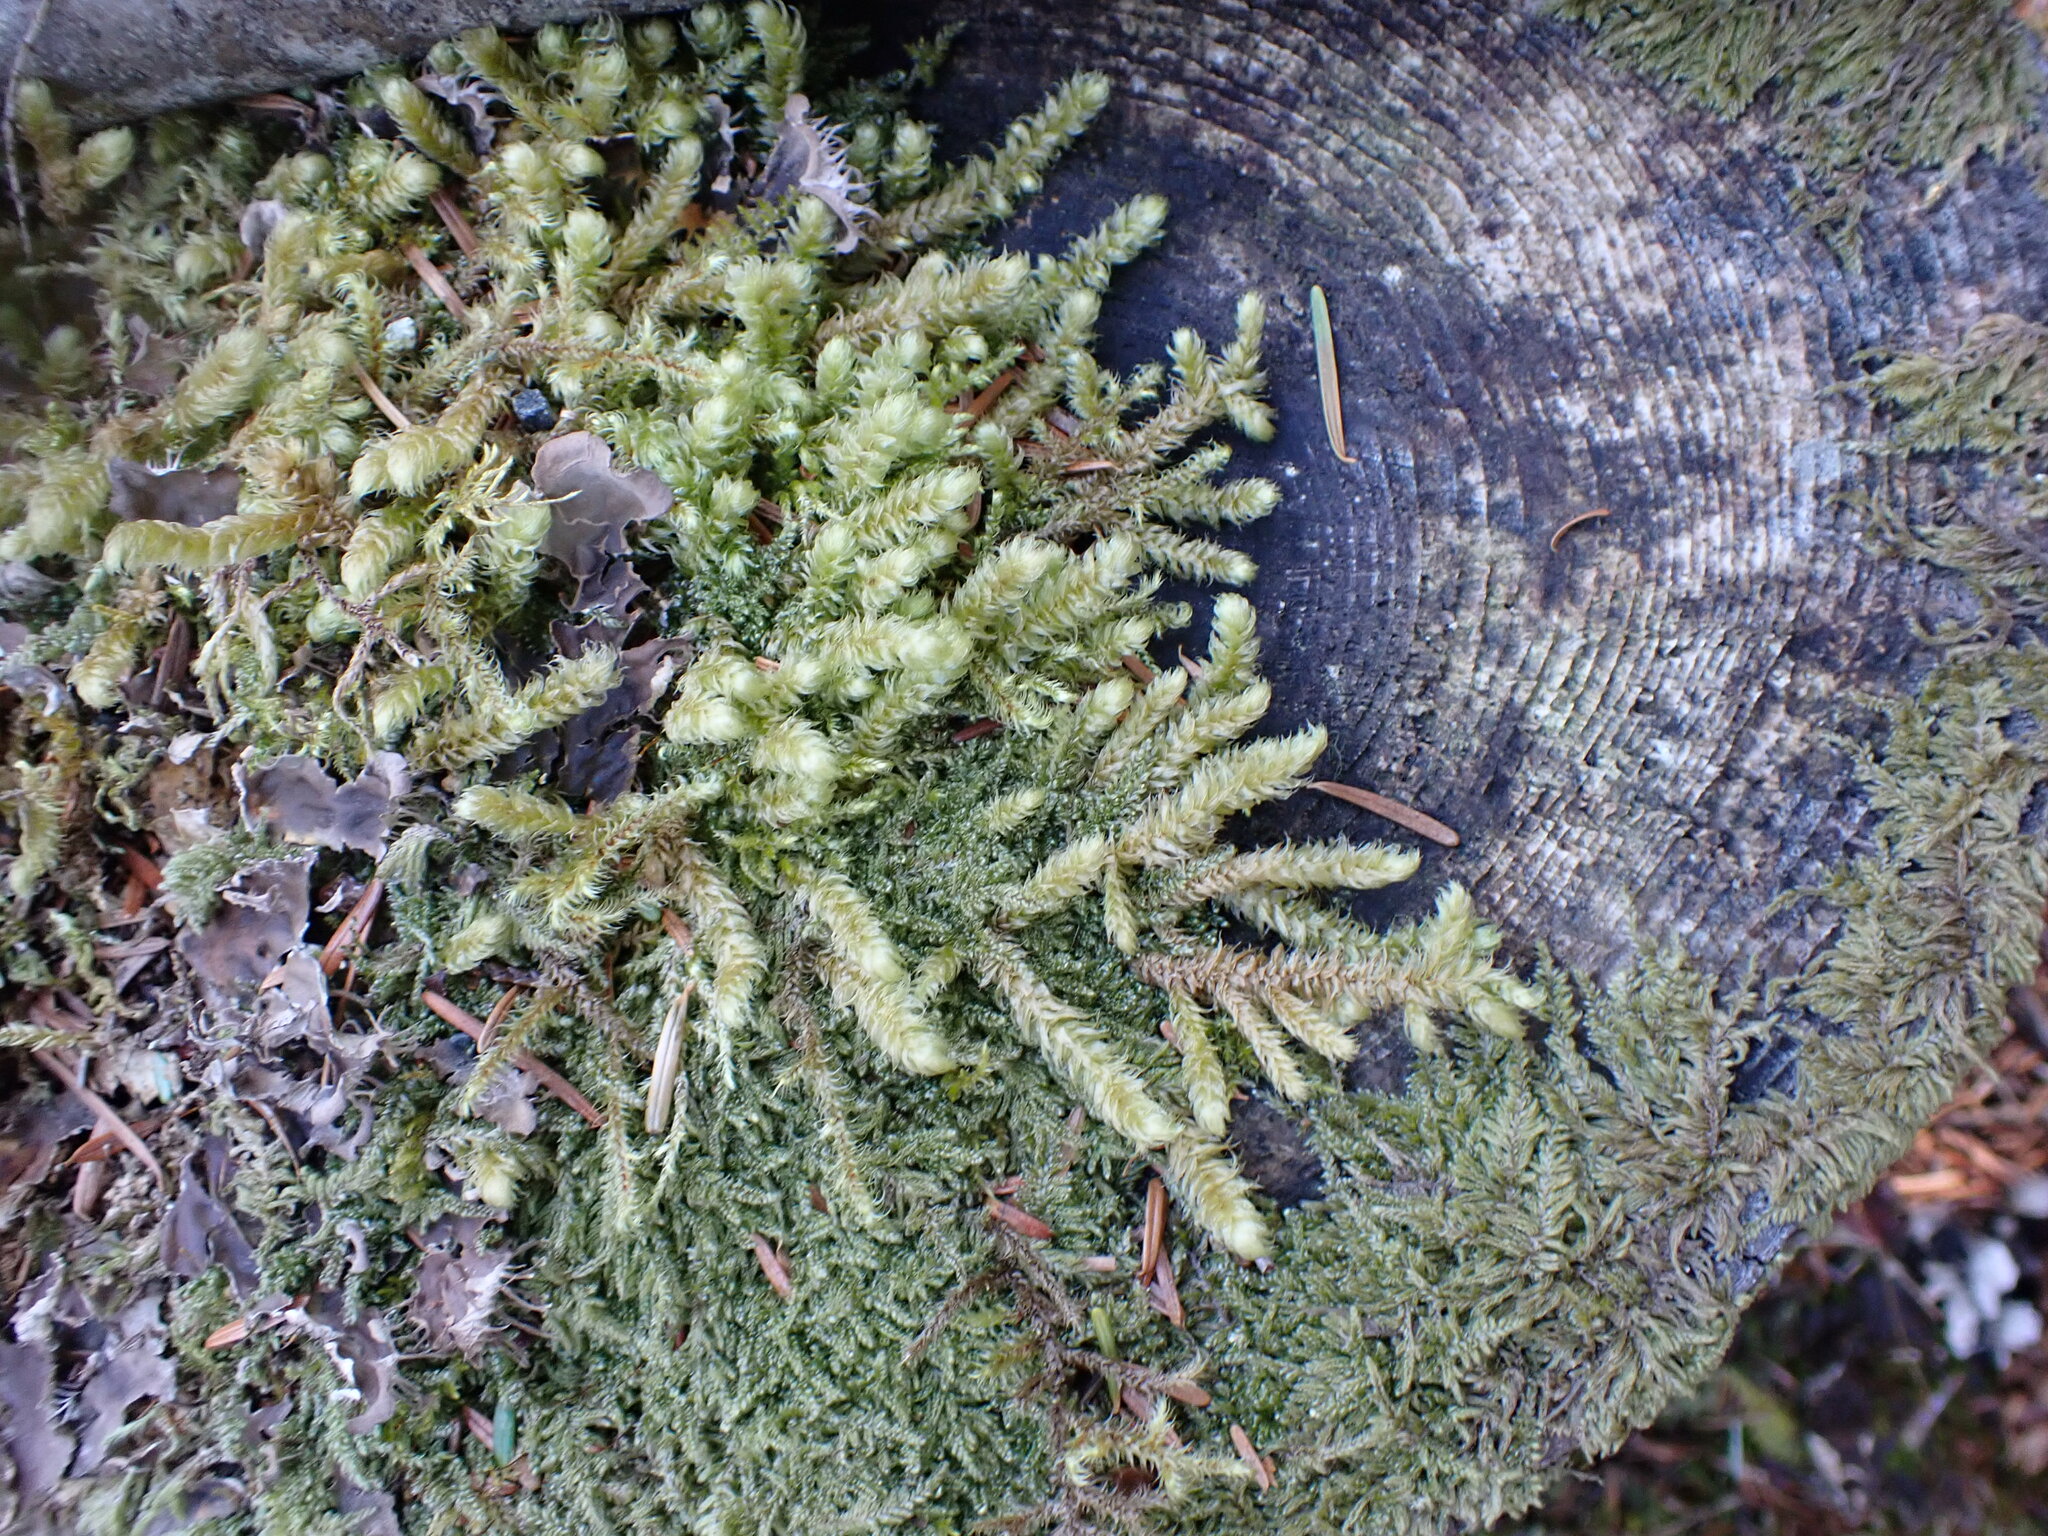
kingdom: Plantae
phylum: Bryophyta
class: Bryopsida
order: Hypnales
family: Hylocomiaceae
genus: Rhytidiopsis
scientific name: Rhytidiopsis robusta
